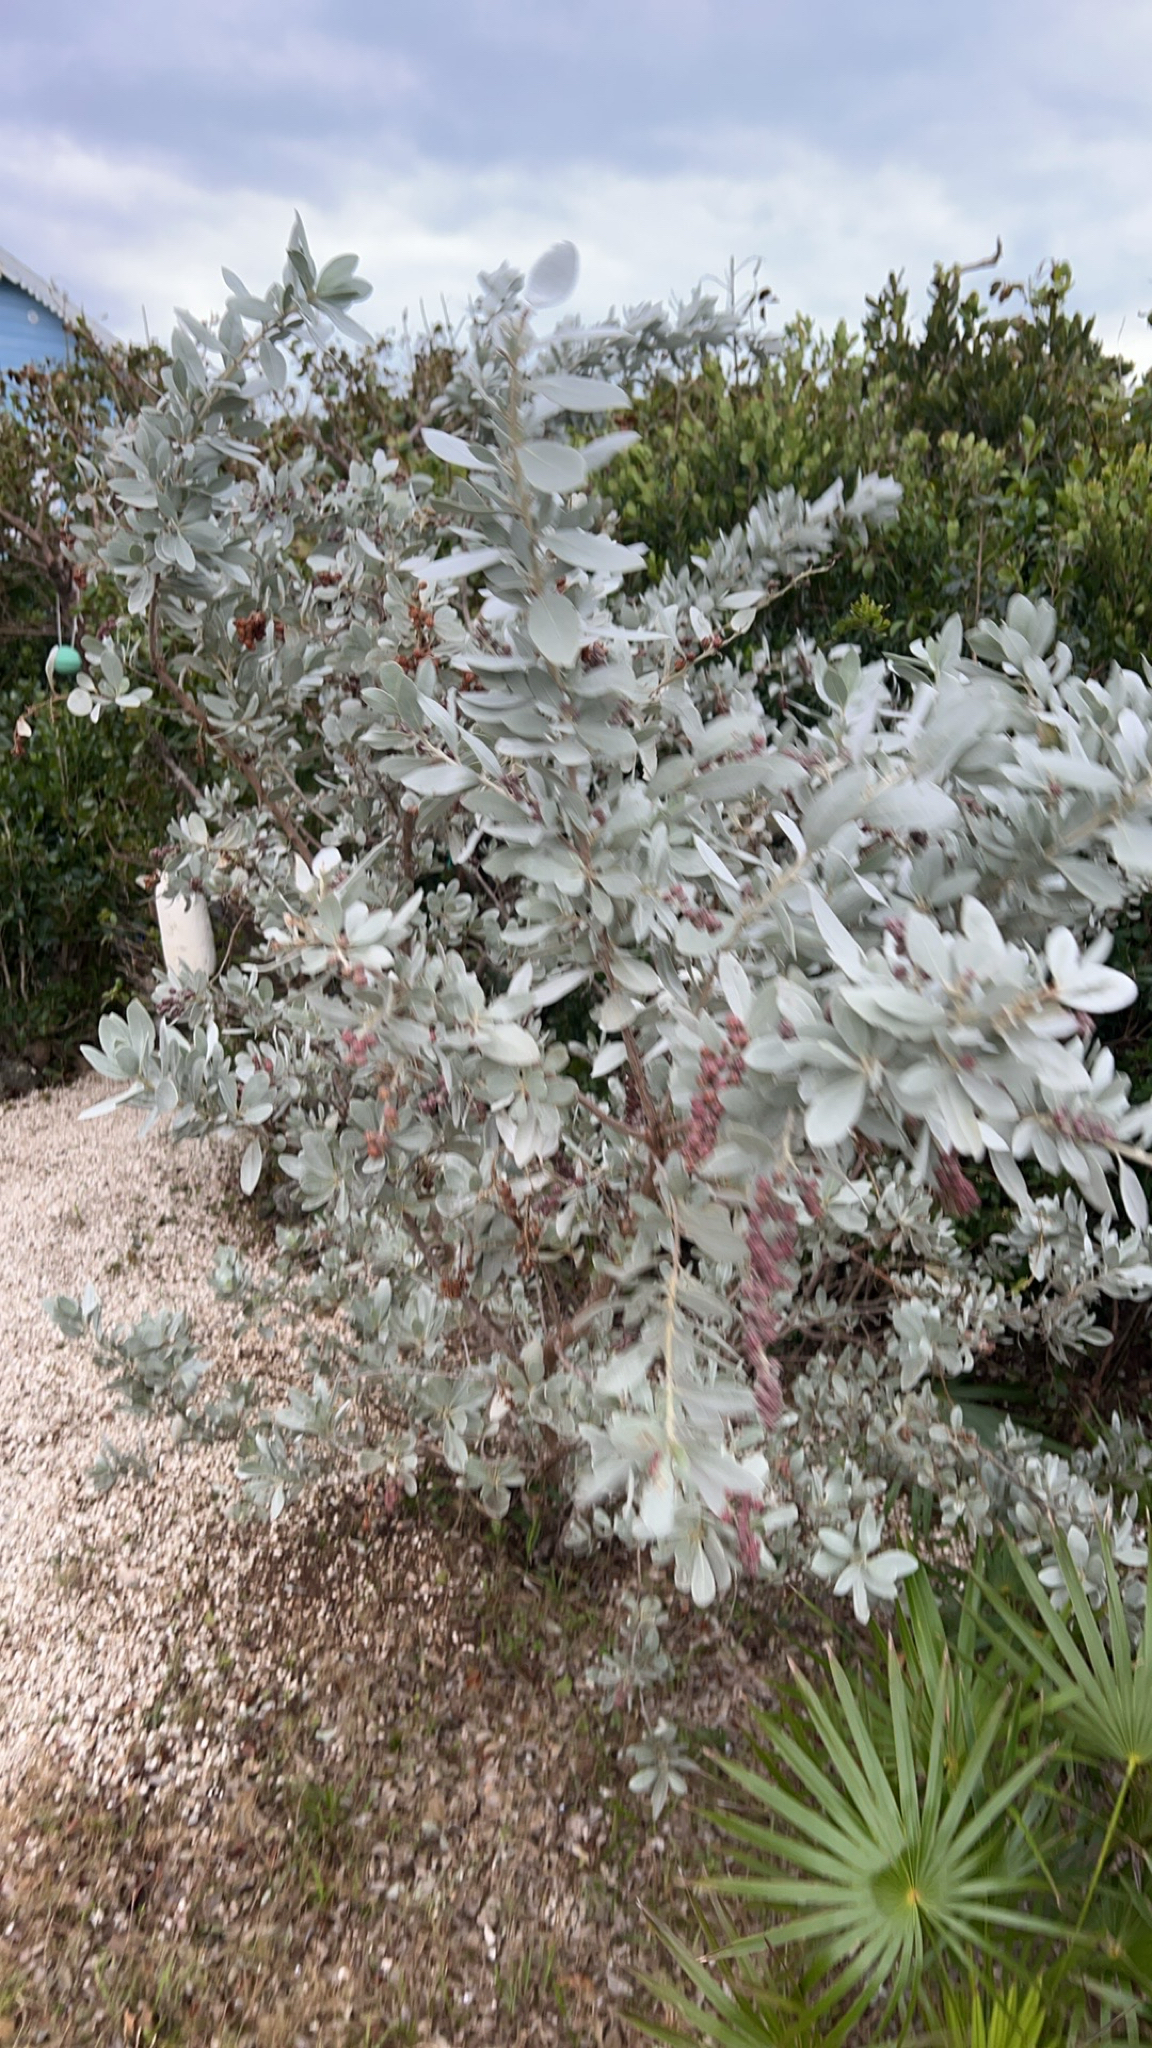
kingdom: Plantae
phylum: Tracheophyta
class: Magnoliopsida
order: Myrtales
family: Combretaceae
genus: Conocarpus
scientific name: Conocarpus erectus
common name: Button mangrove
